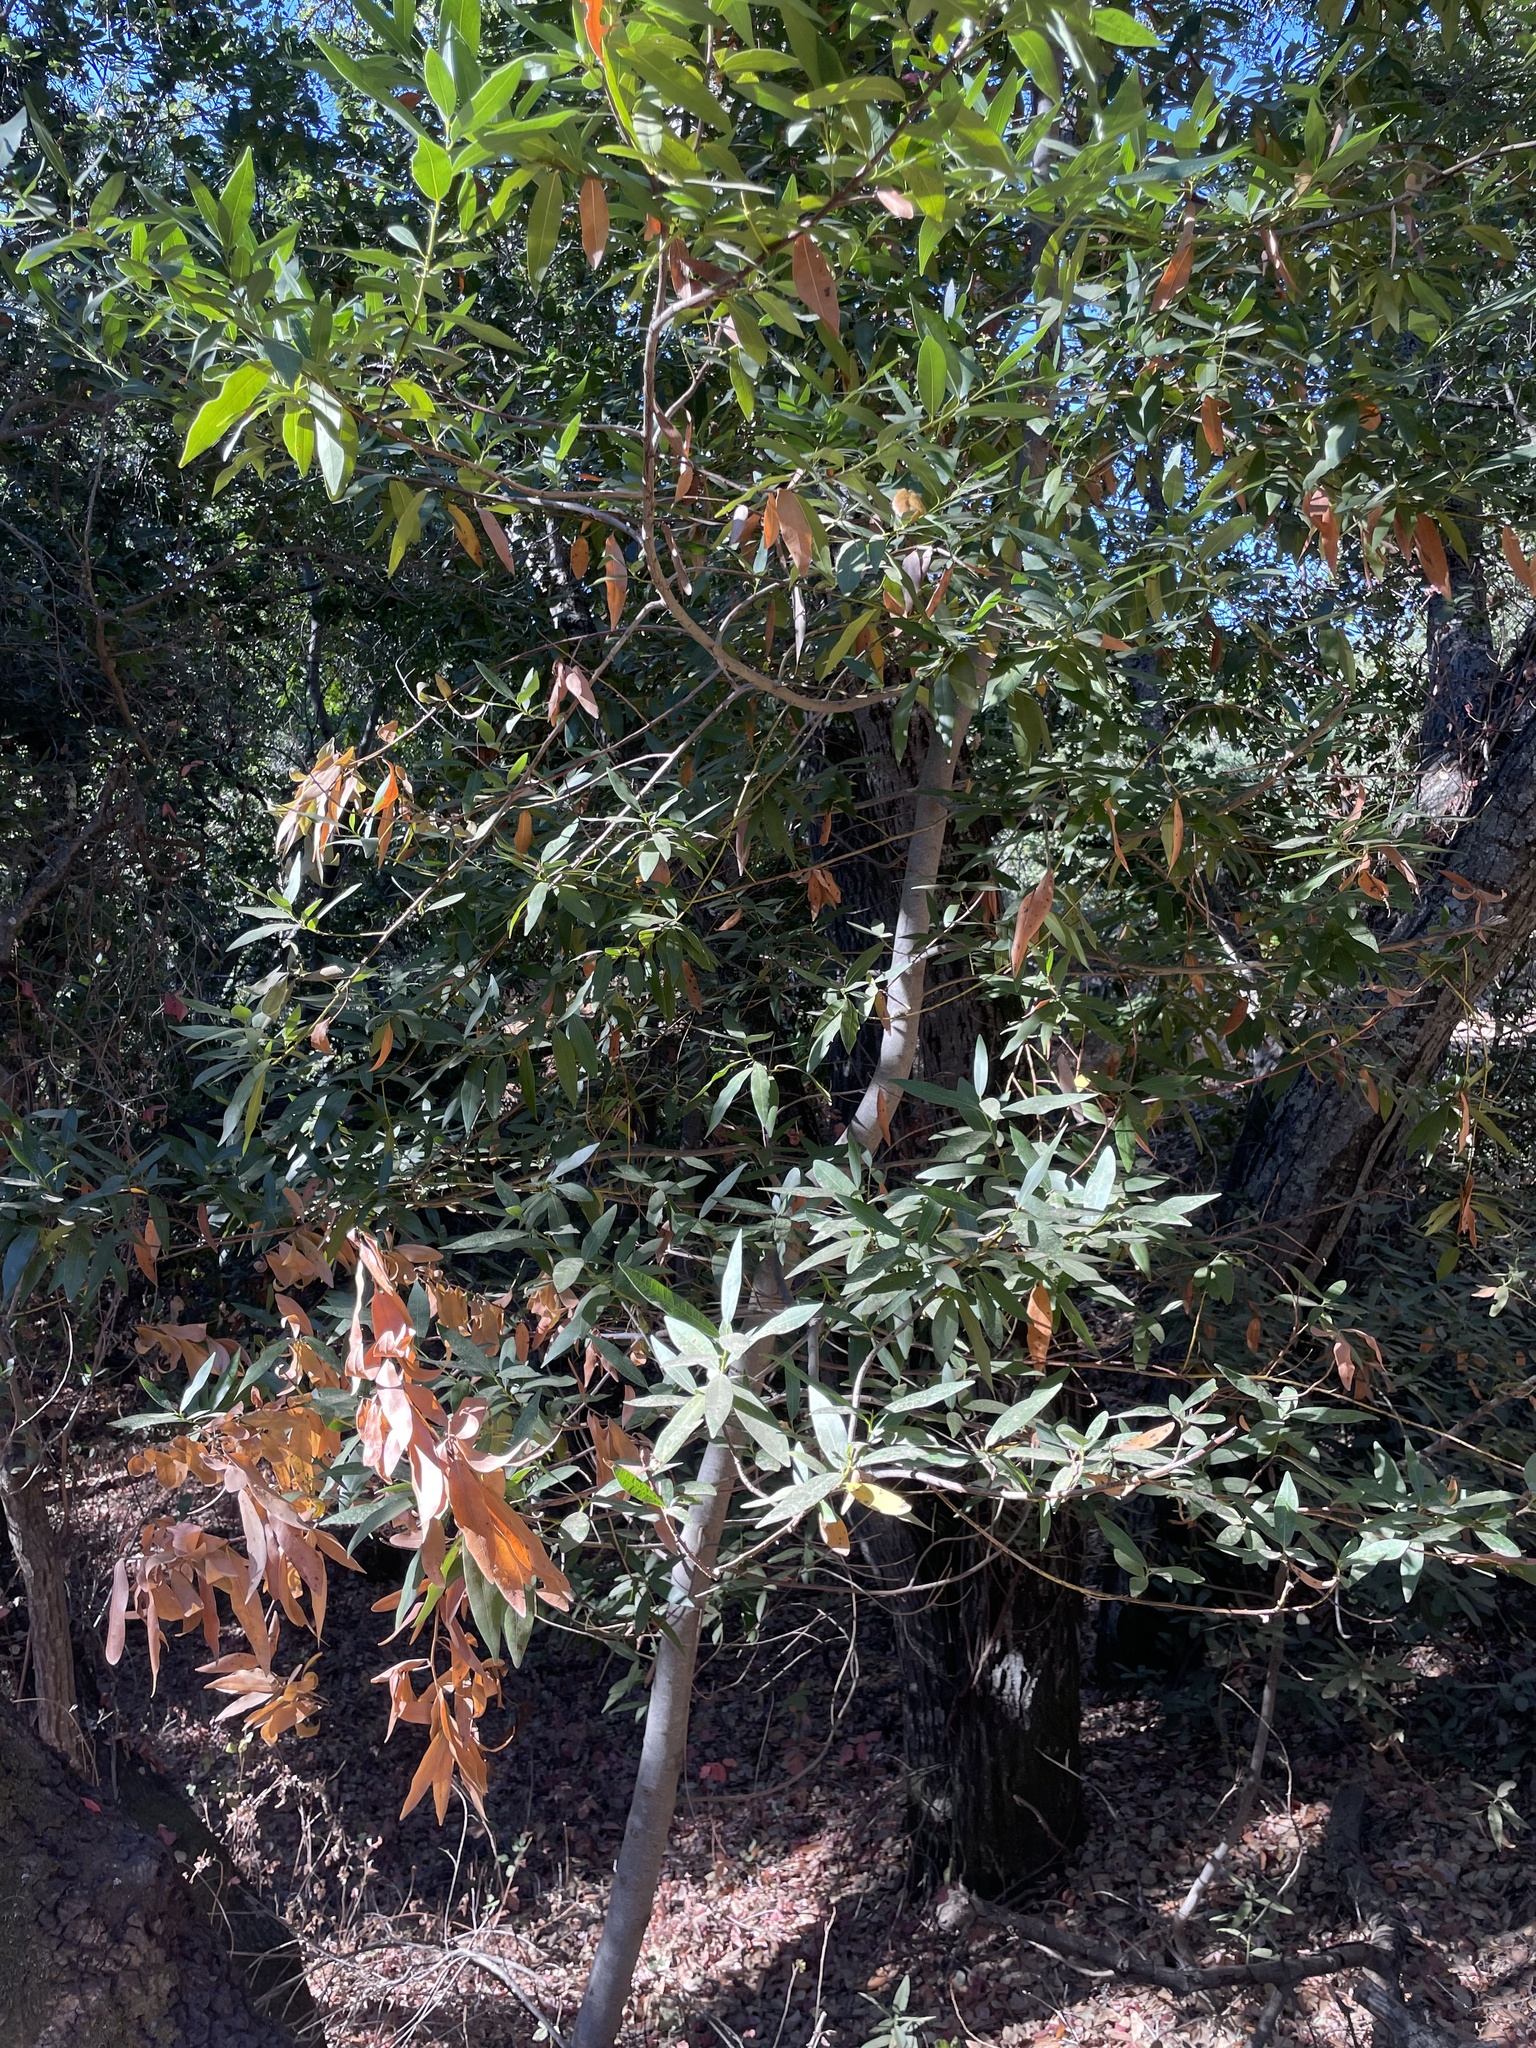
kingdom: Plantae
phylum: Tracheophyta
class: Magnoliopsida
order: Laurales
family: Lauraceae
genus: Umbellularia
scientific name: Umbellularia californica
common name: California bay
